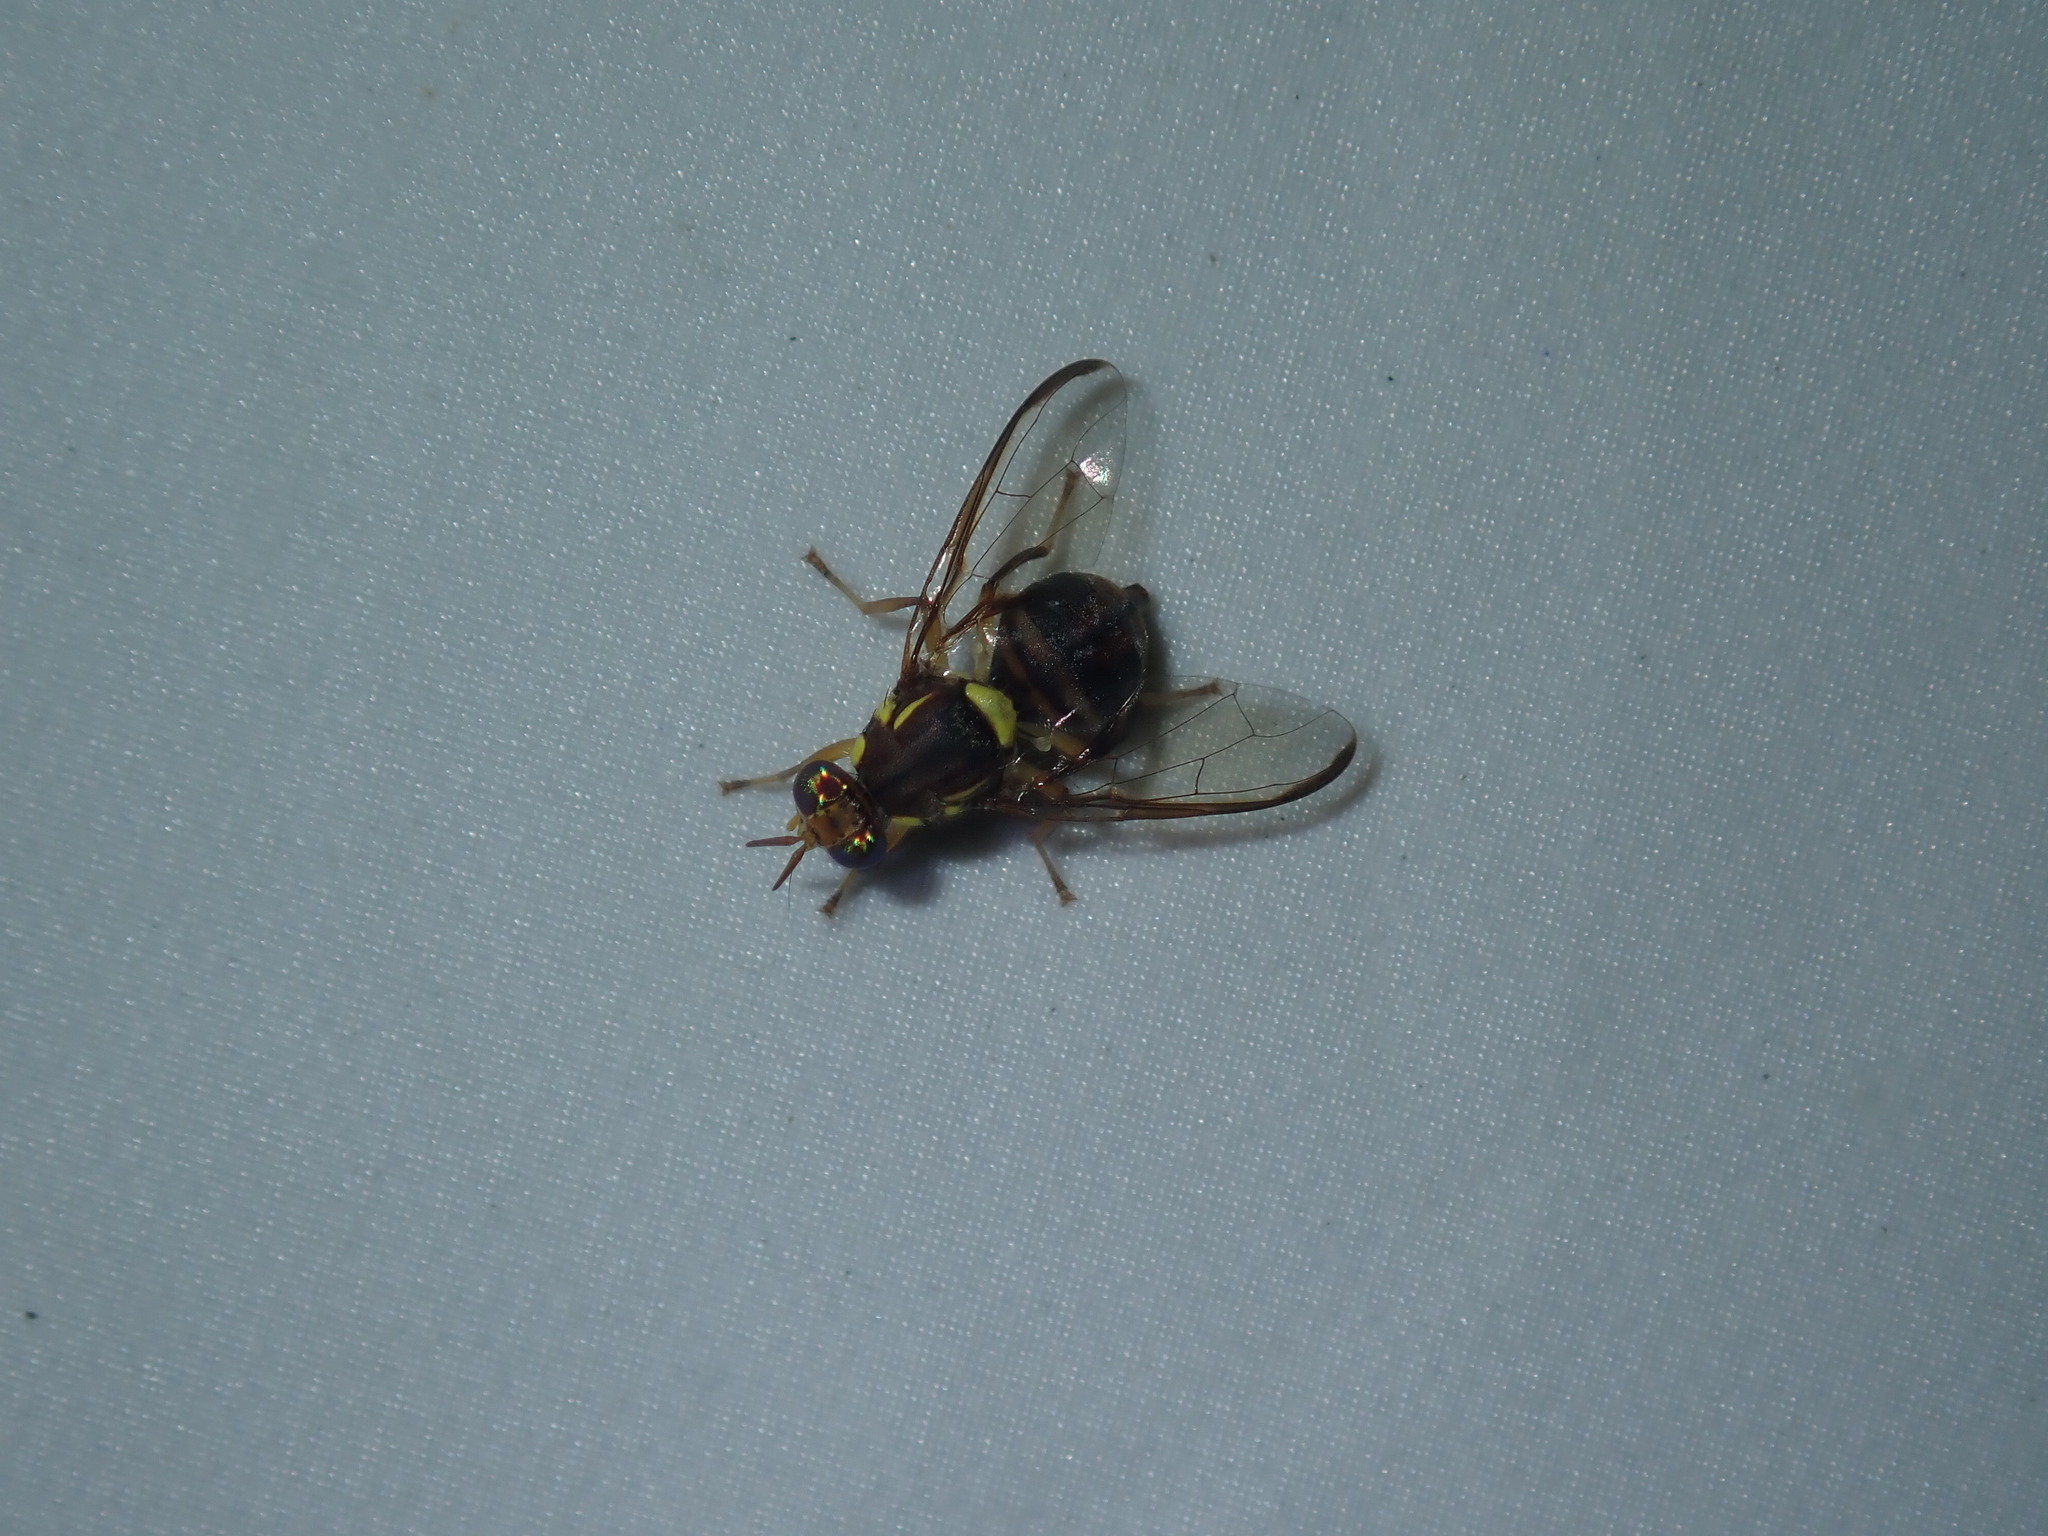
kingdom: Animalia
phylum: Arthropoda
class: Insecta
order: Diptera
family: Tephritidae
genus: Bactrocera
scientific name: Bactrocera tryoni
